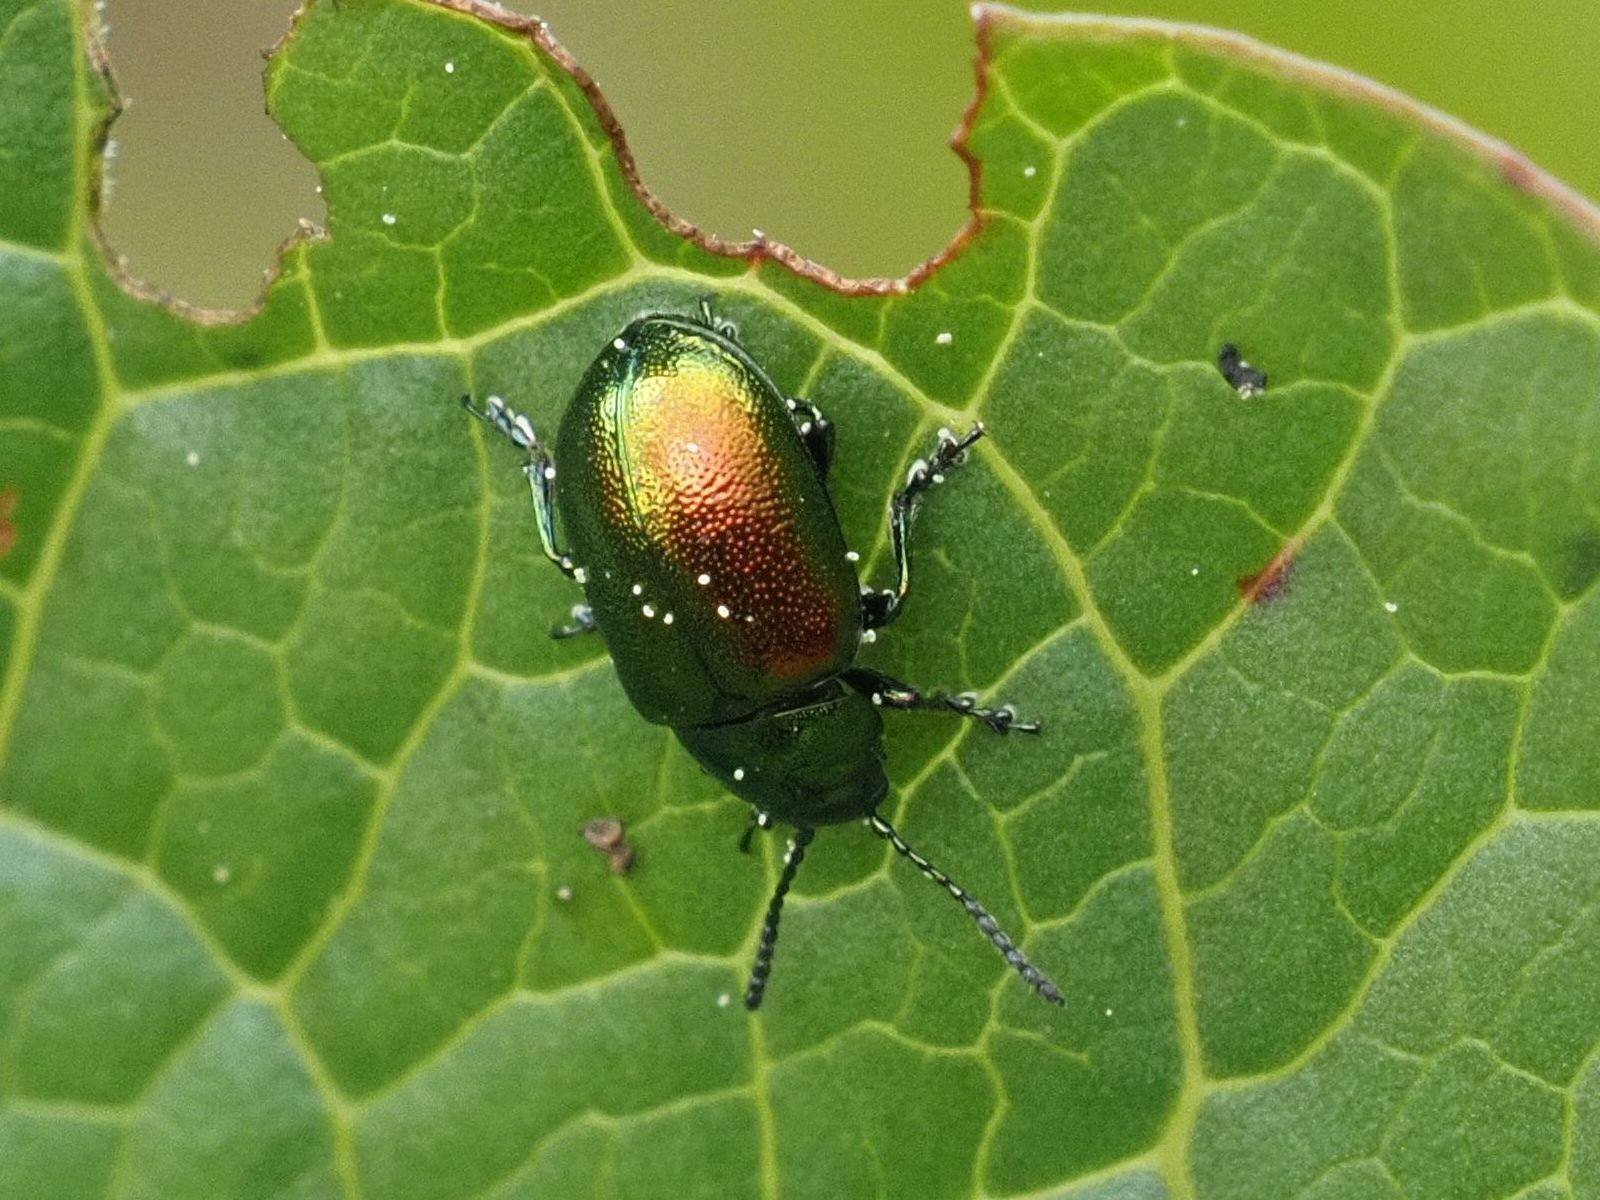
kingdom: Animalia
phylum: Arthropoda
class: Insecta
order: Coleoptera
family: Chrysomelidae
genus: Gastrophysa
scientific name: Gastrophysa viridula
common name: Green dock beetle
